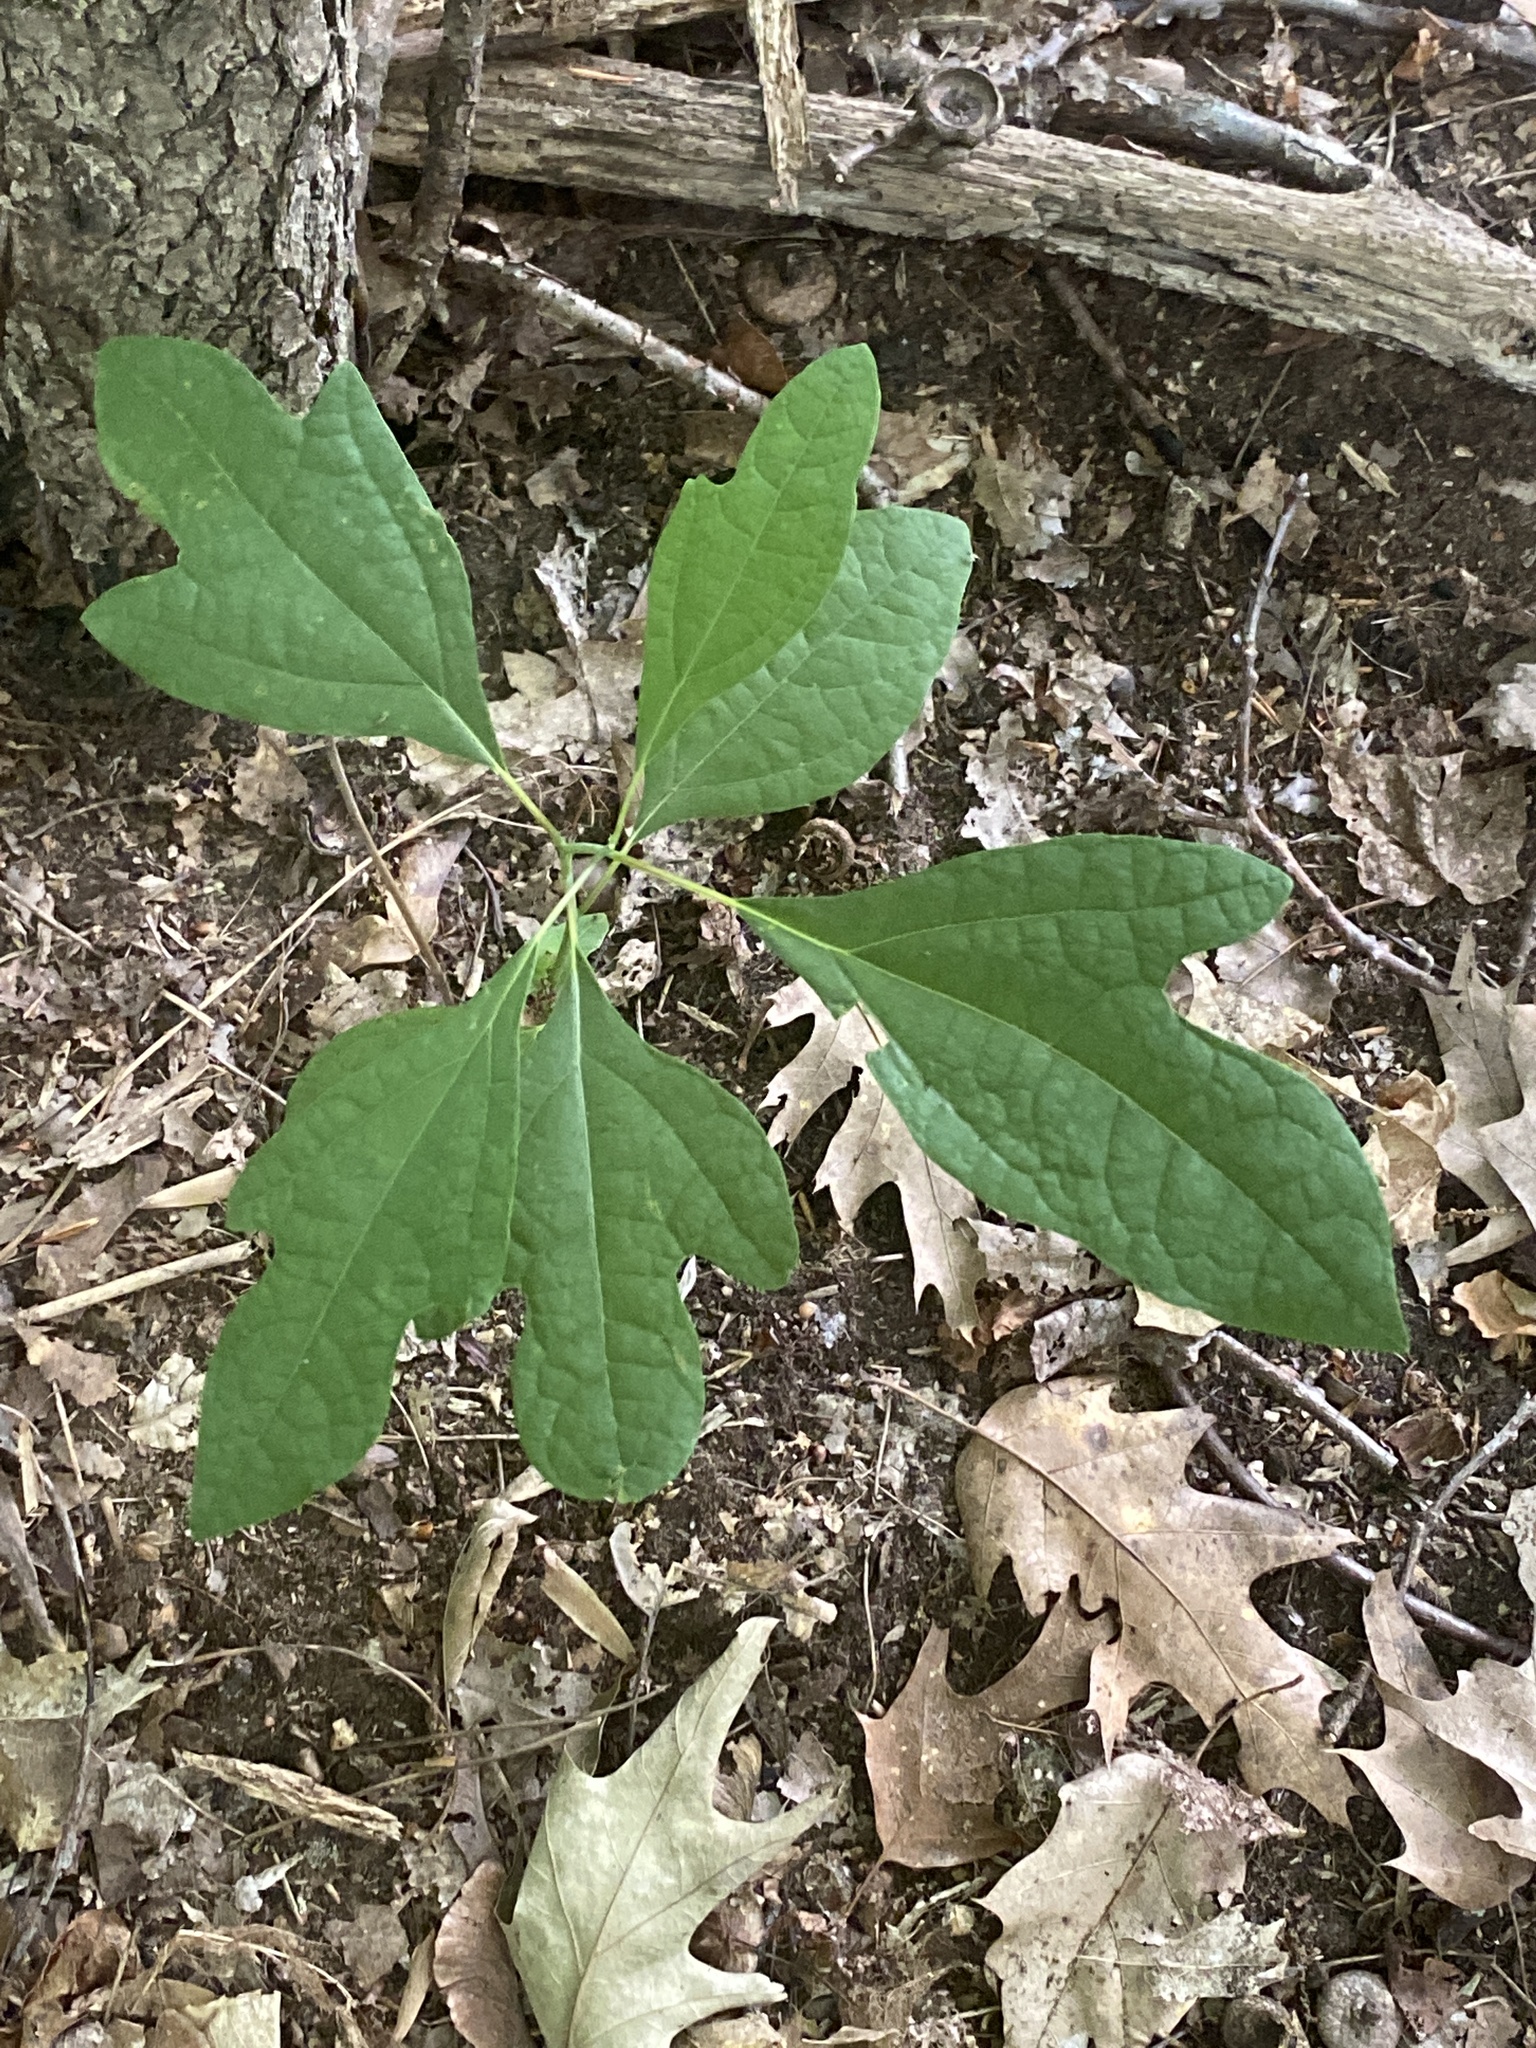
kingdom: Plantae
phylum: Tracheophyta
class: Magnoliopsida
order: Laurales
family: Lauraceae
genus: Sassafras
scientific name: Sassafras albidum
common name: Sassafras
